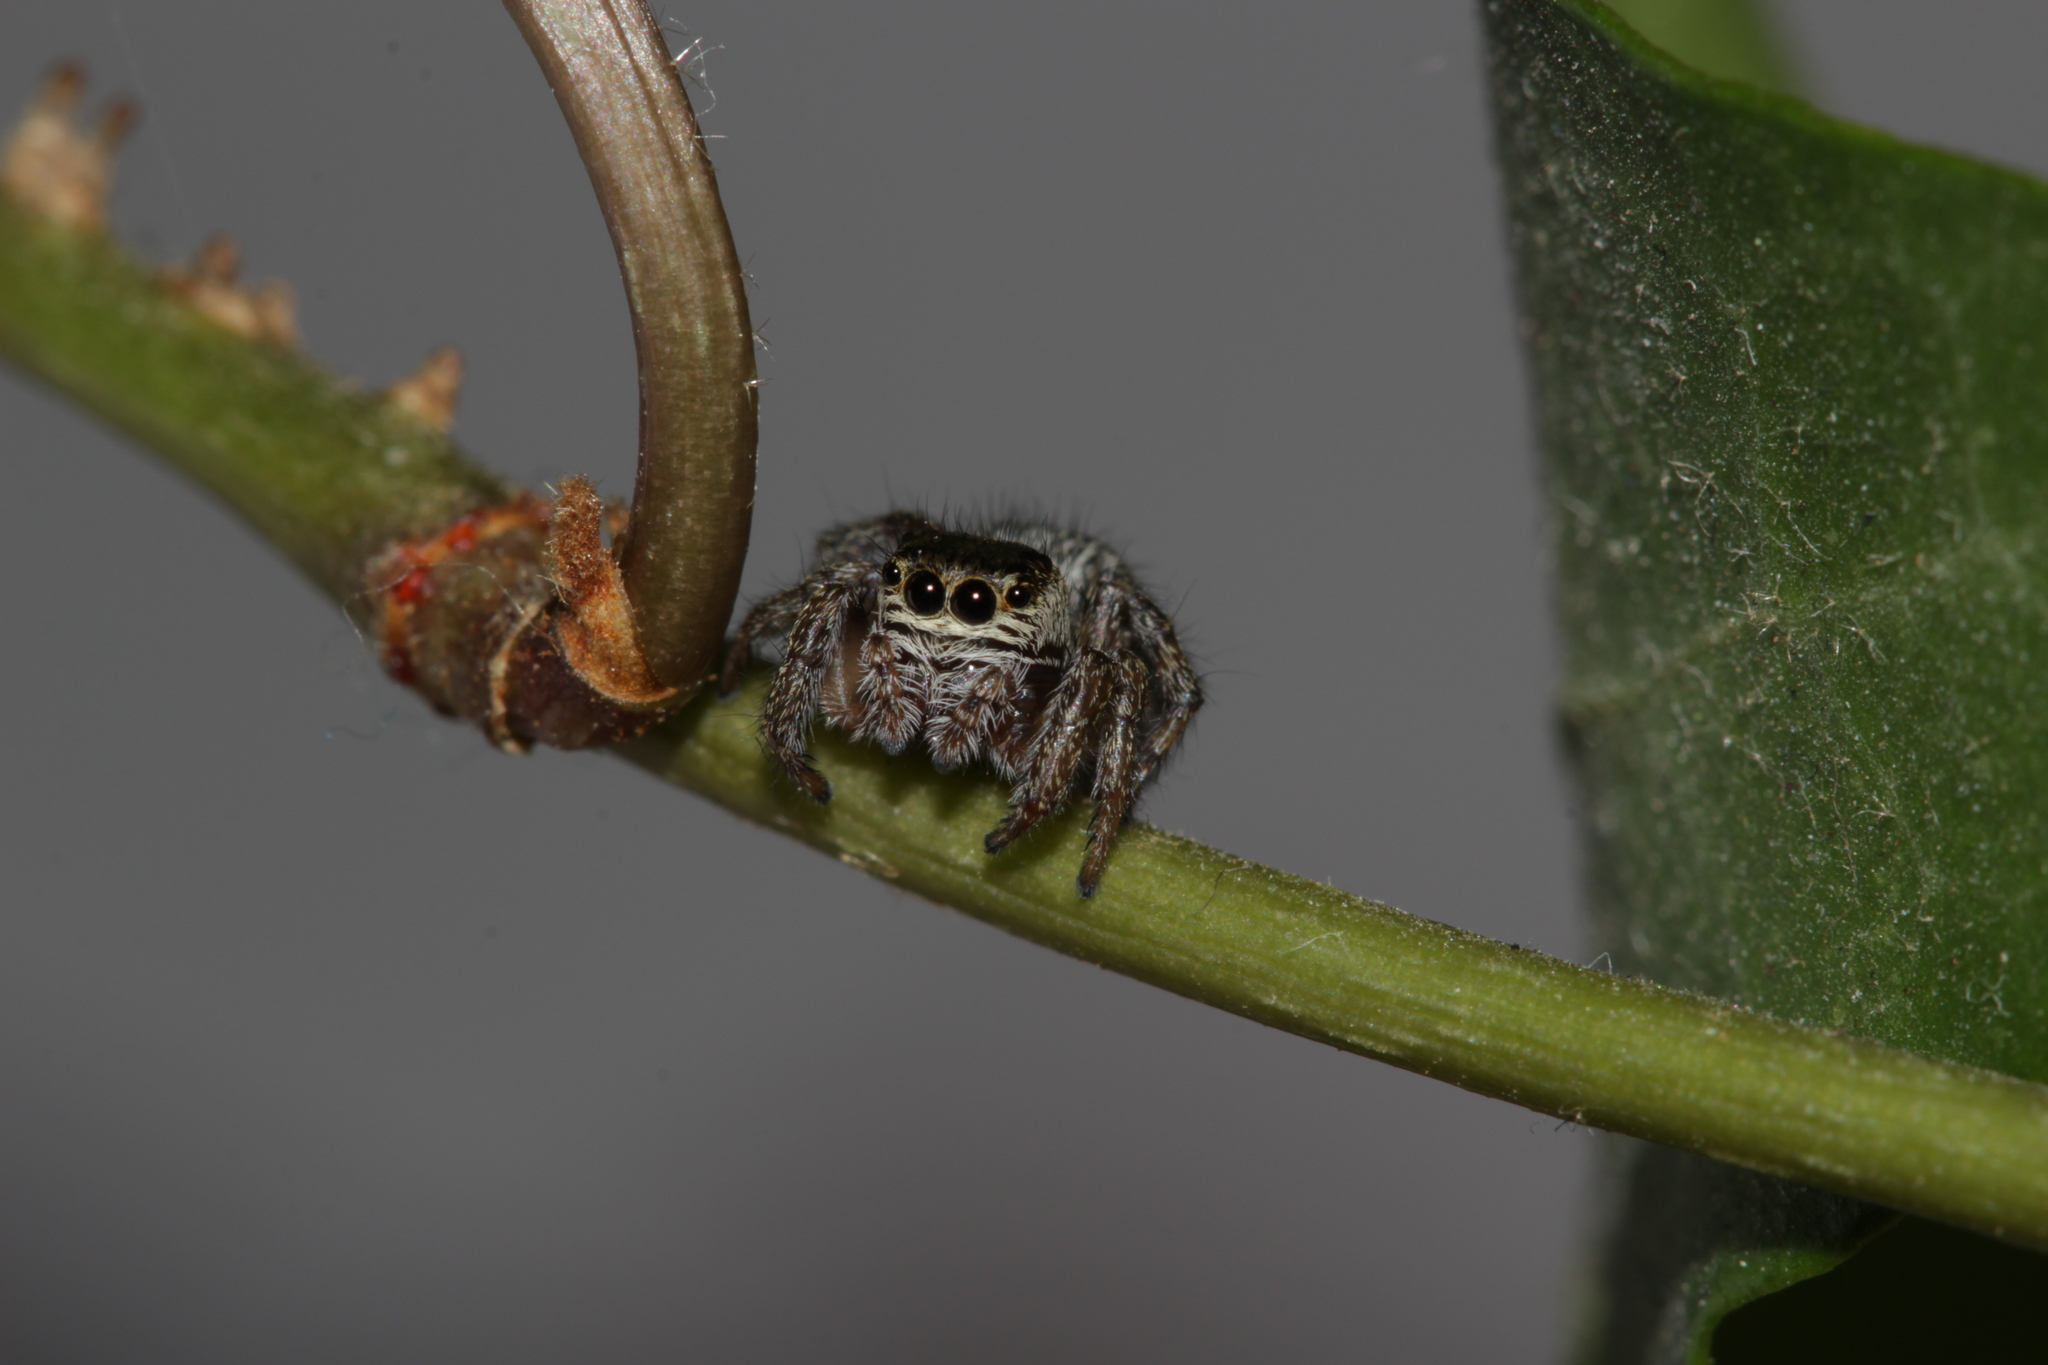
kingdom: Animalia
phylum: Arthropoda
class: Arachnida
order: Araneae
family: Salticidae
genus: Evarcha
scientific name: Evarcha arcuata
